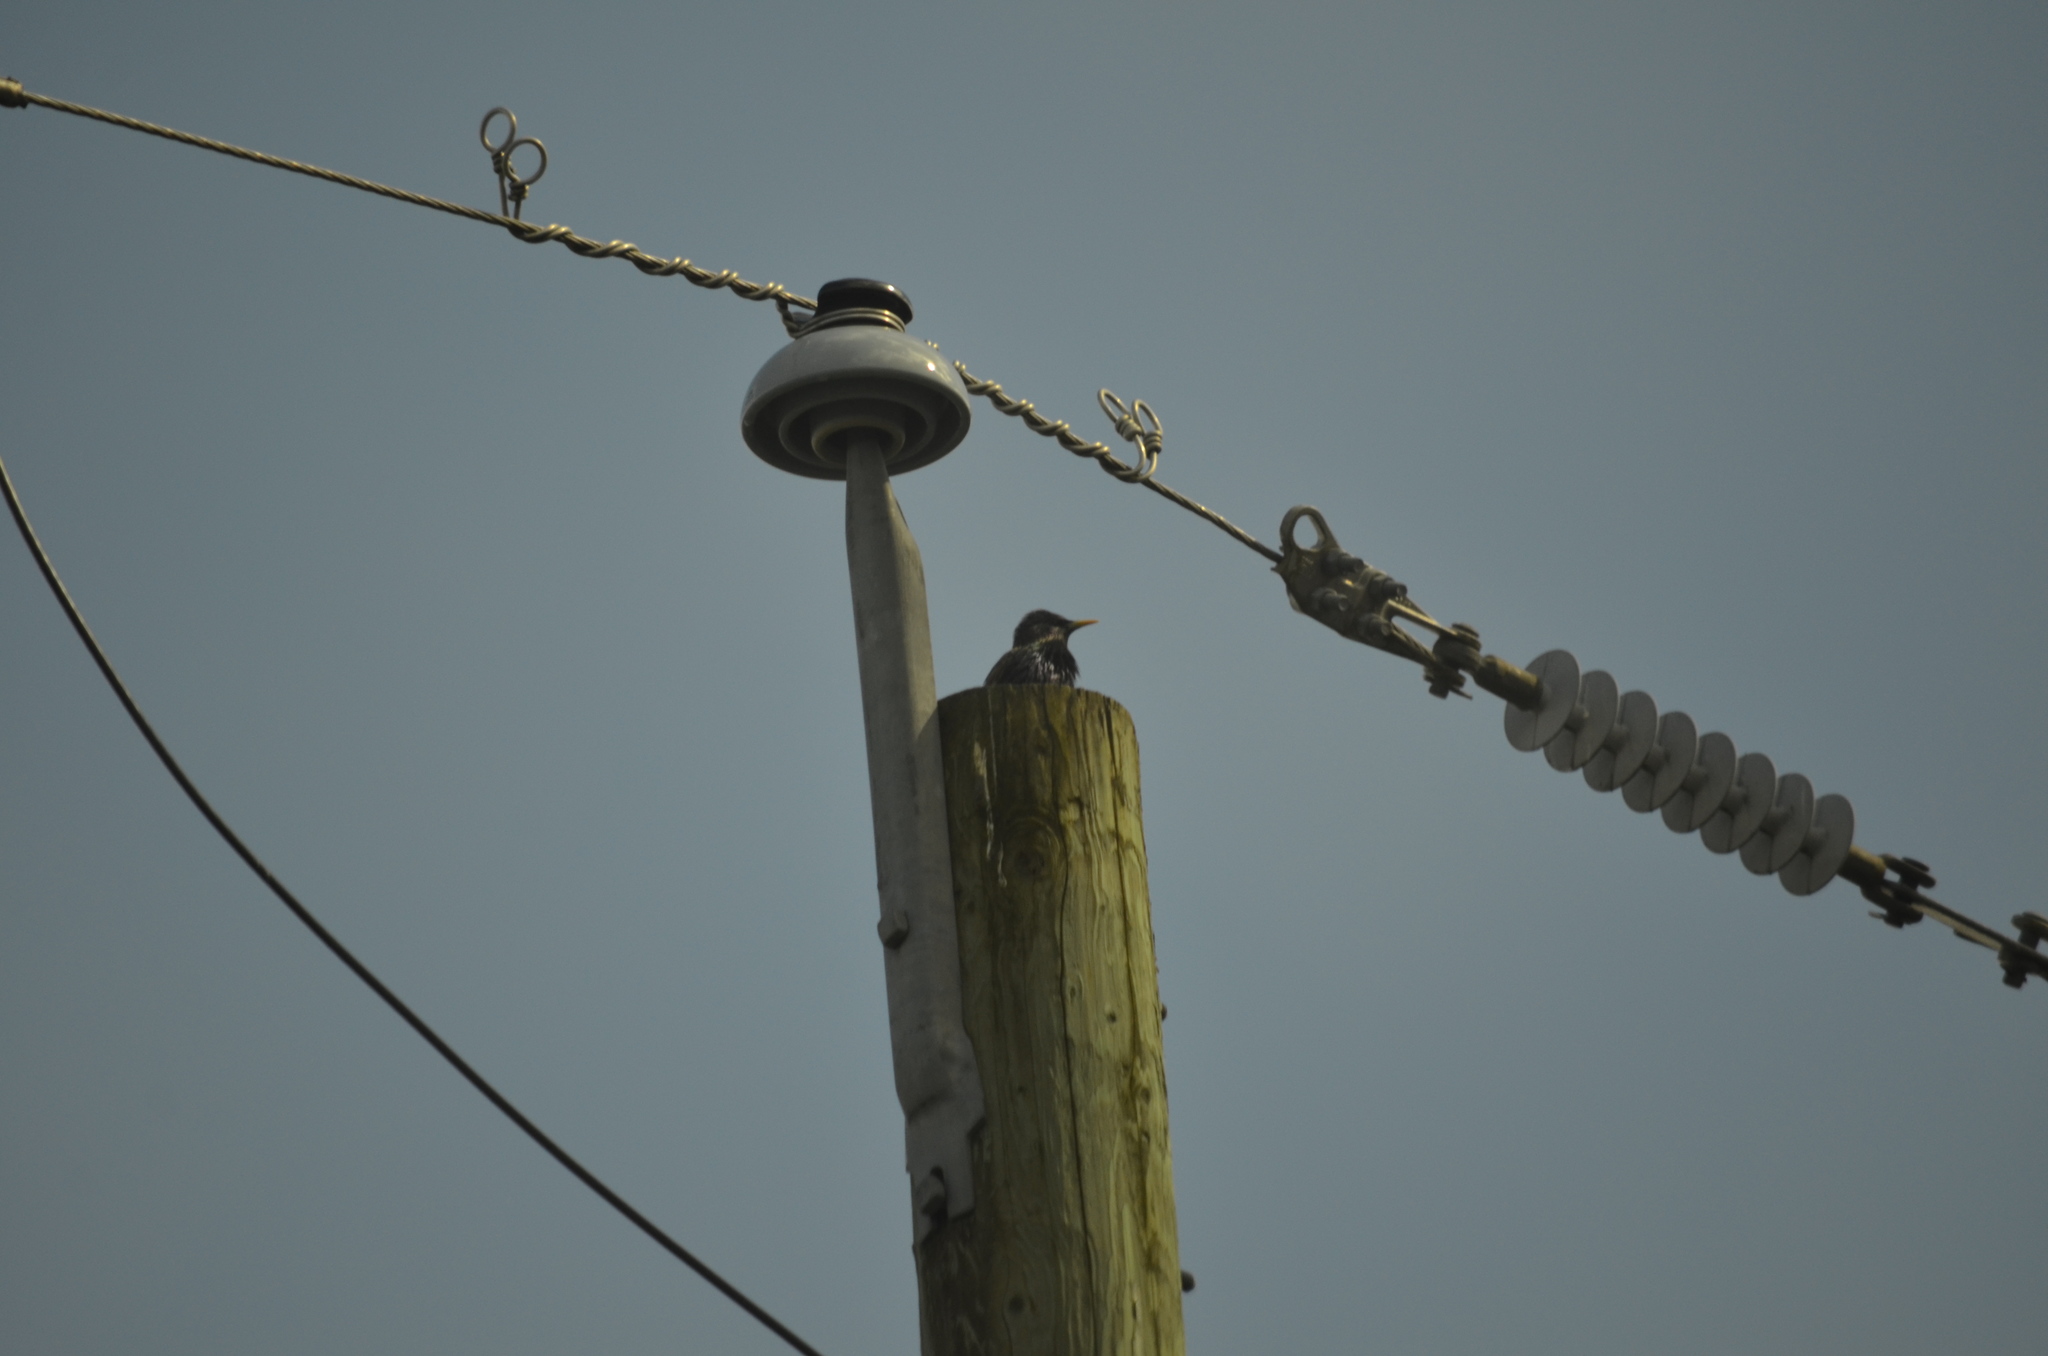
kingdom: Animalia
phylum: Chordata
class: Aves
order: Passeriformes
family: Sturnidae
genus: Sturnus
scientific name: Sturnus vulgaris
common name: Common starling
